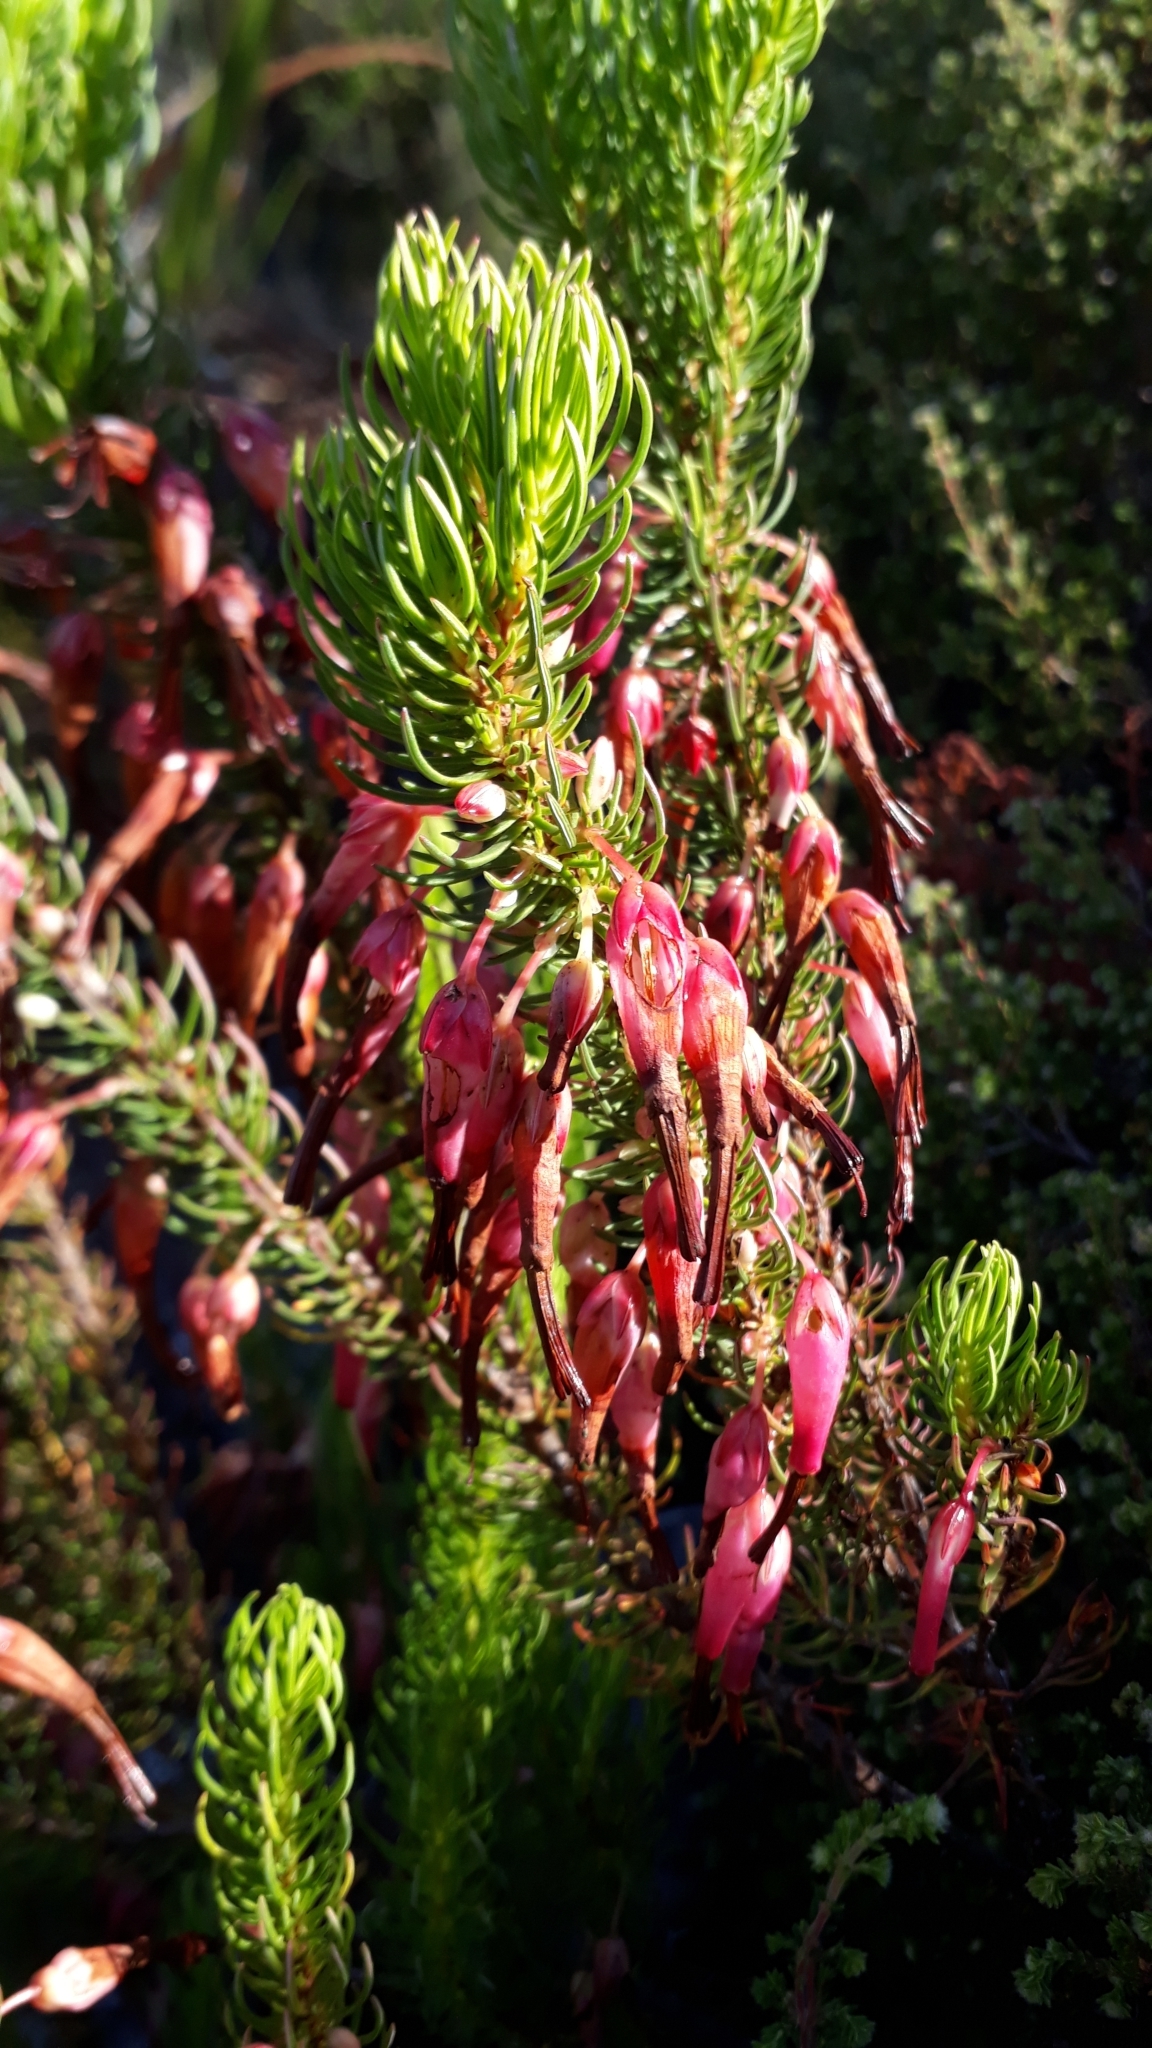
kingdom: Plantae
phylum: Tracheophyta
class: Magnoliopsida
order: Ericales
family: Ericaceae
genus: Erica
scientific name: Erica plukenetii
